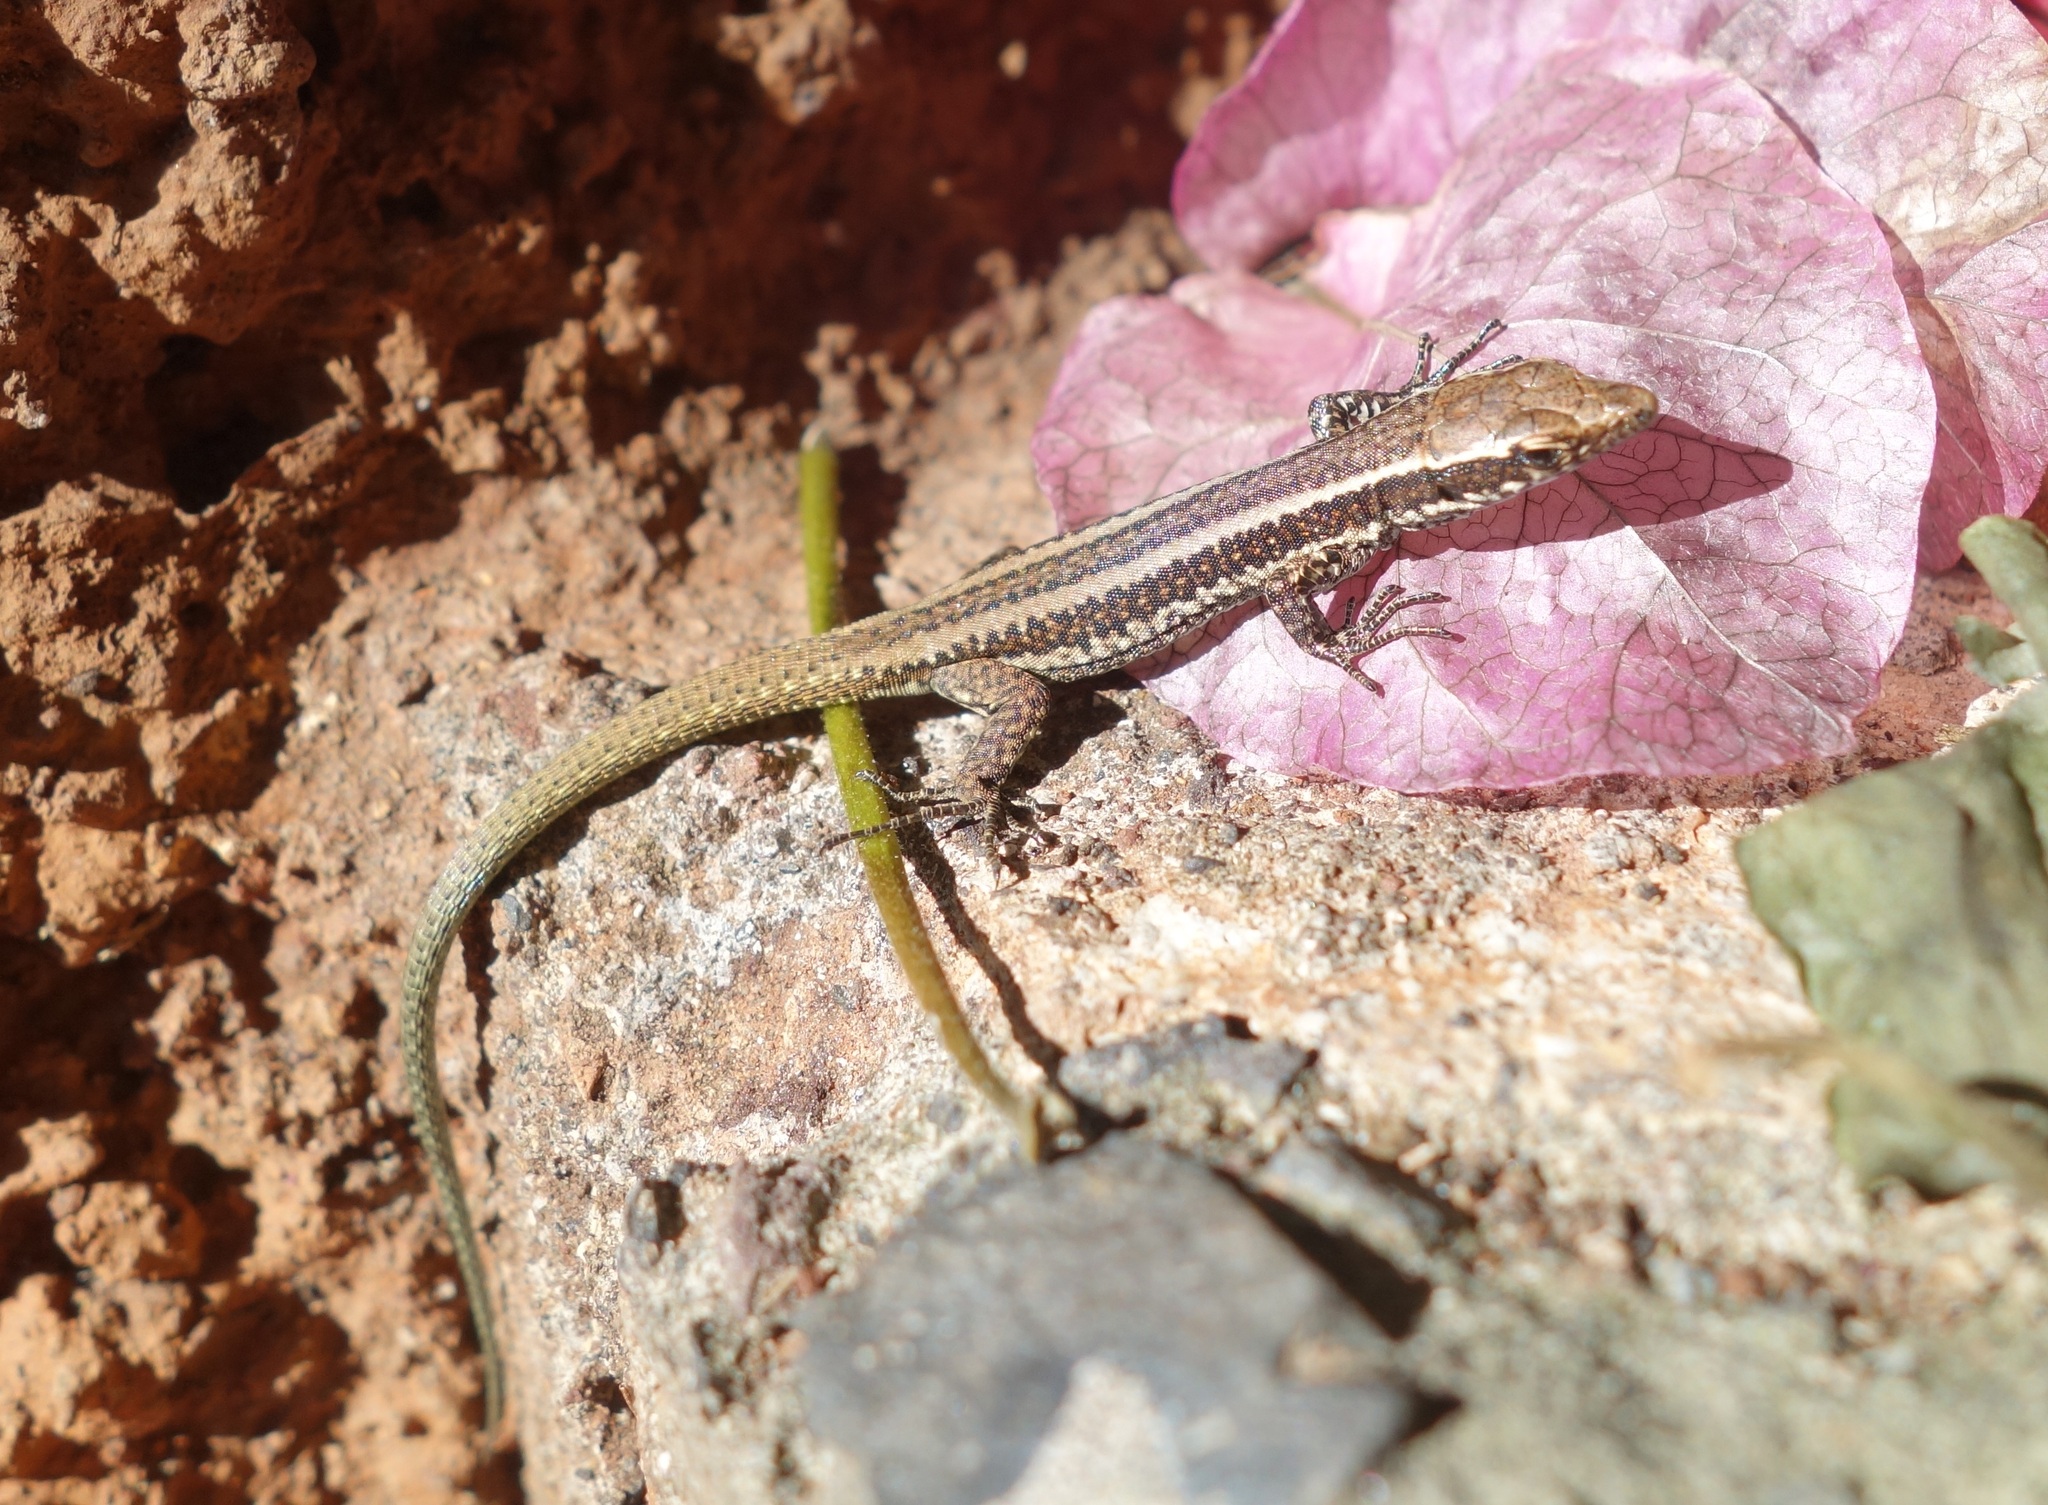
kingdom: Animalia
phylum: Chordata
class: Squamata
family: Lacertidae
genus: Teira
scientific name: Teira dugesii
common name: Madeira lizard
